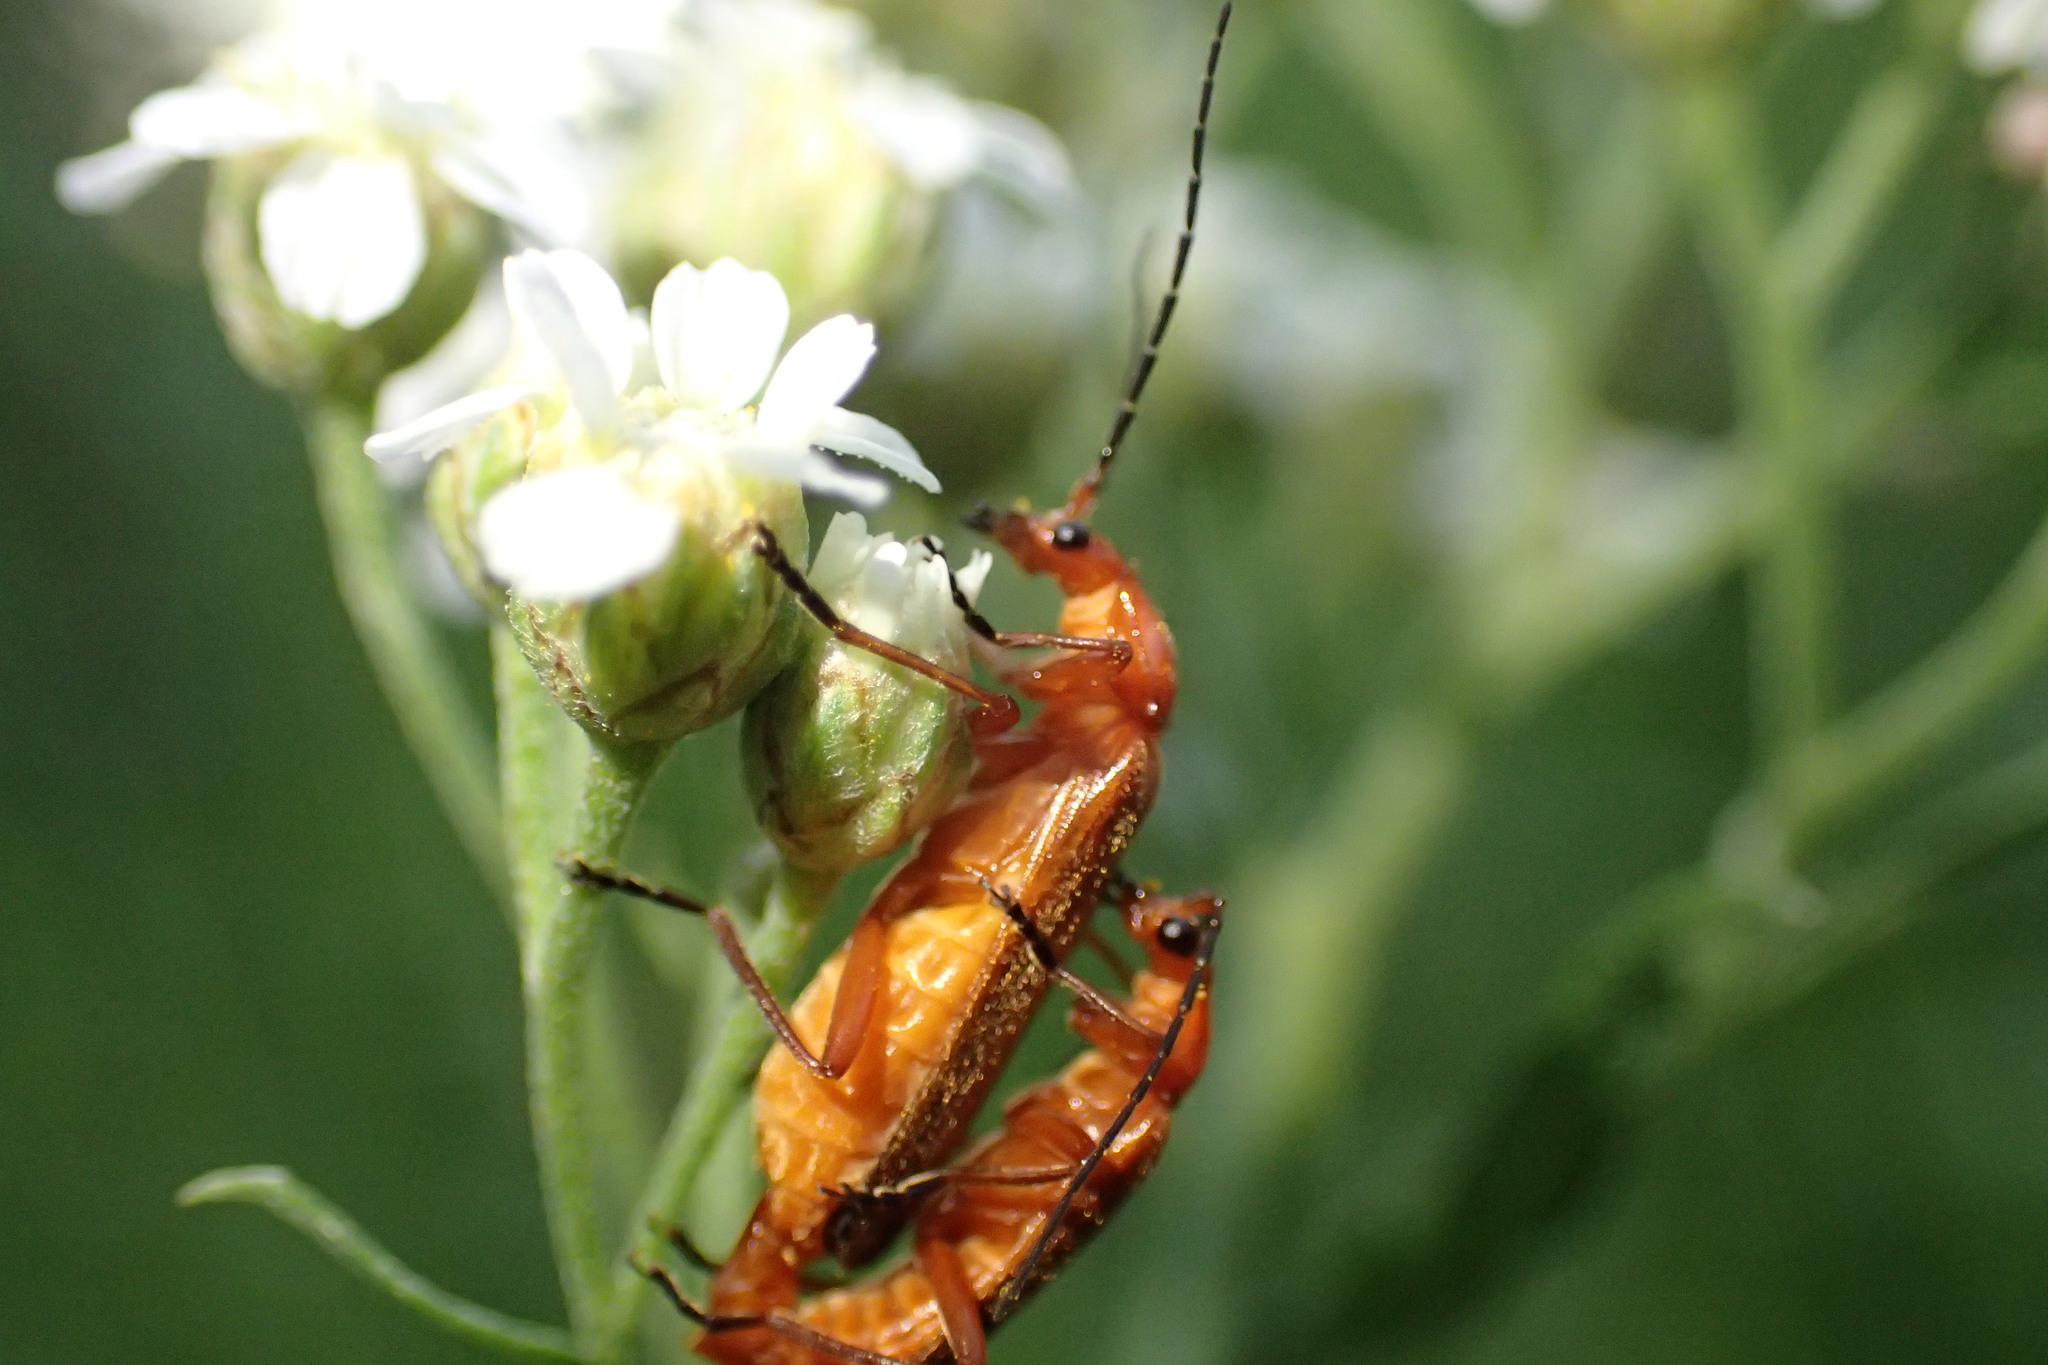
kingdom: Animalia
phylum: Arthropoda
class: Insecta
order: Coleoptera
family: Cantharidae
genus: Rhagonycha
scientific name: Rhagonycha fulva
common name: Common red soldier beetle
